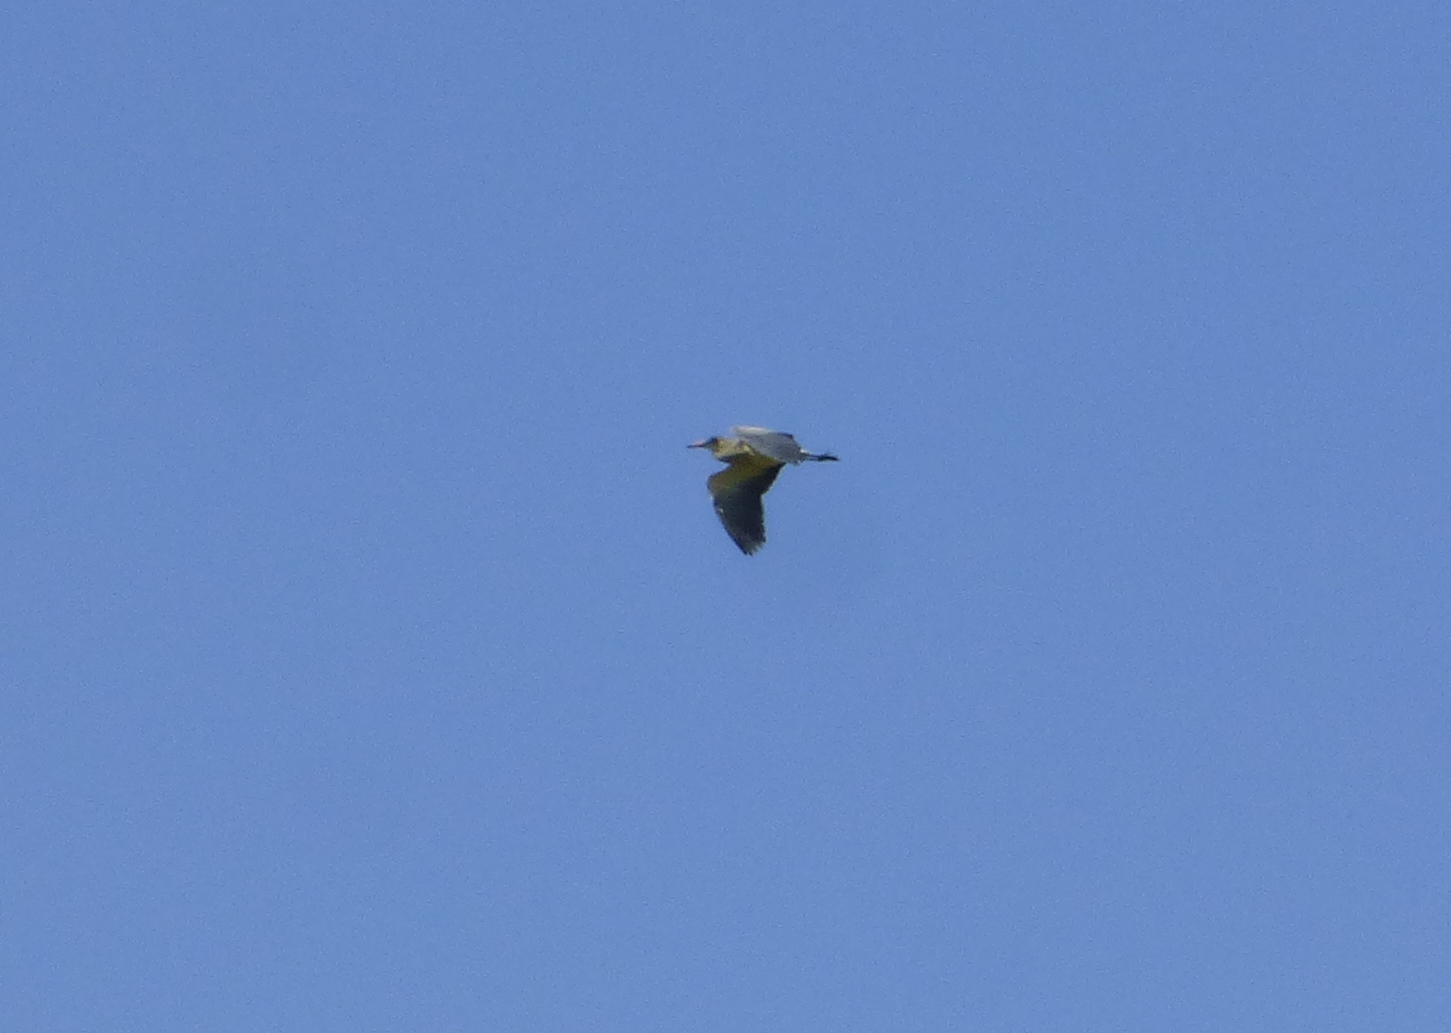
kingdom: Animalia
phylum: Chordata
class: Aves
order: Pelecaniformes
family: Ardeidae
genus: Syrigma
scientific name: Syrigma sibilatrix
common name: Whistling heron
